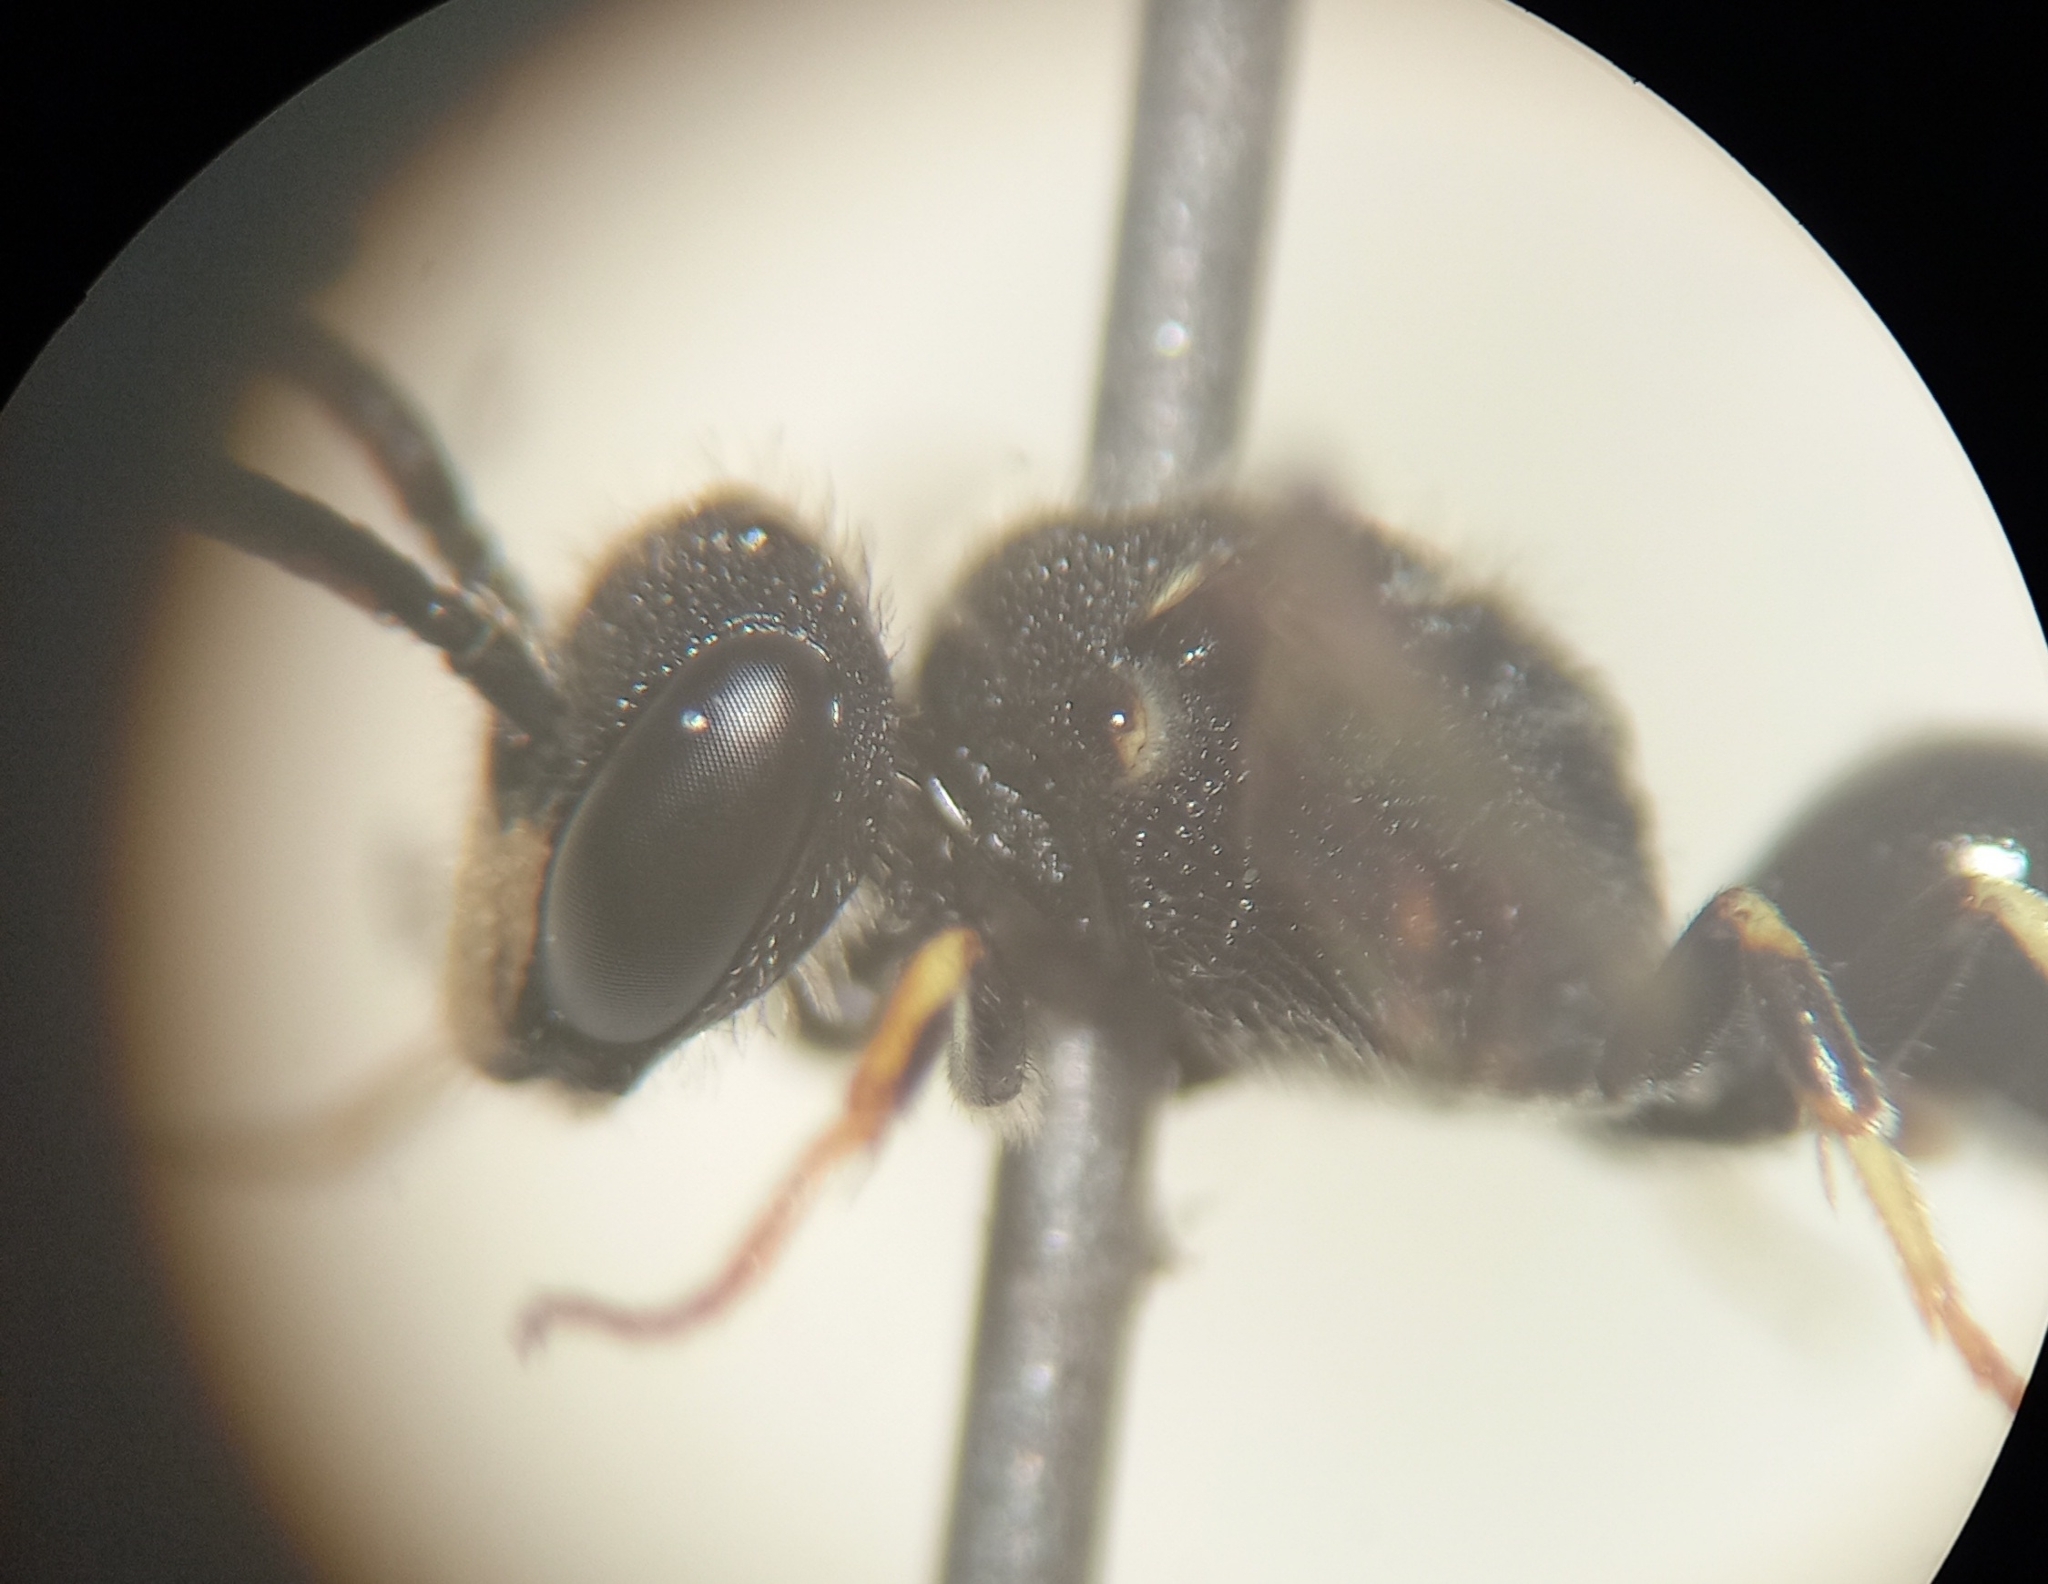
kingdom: Animalia
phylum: Arthropoda
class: Insecta
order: Hymenoptera
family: Colletidae
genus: Hylaeus
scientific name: Hylaeus punctatus
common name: Punctate masked bee
